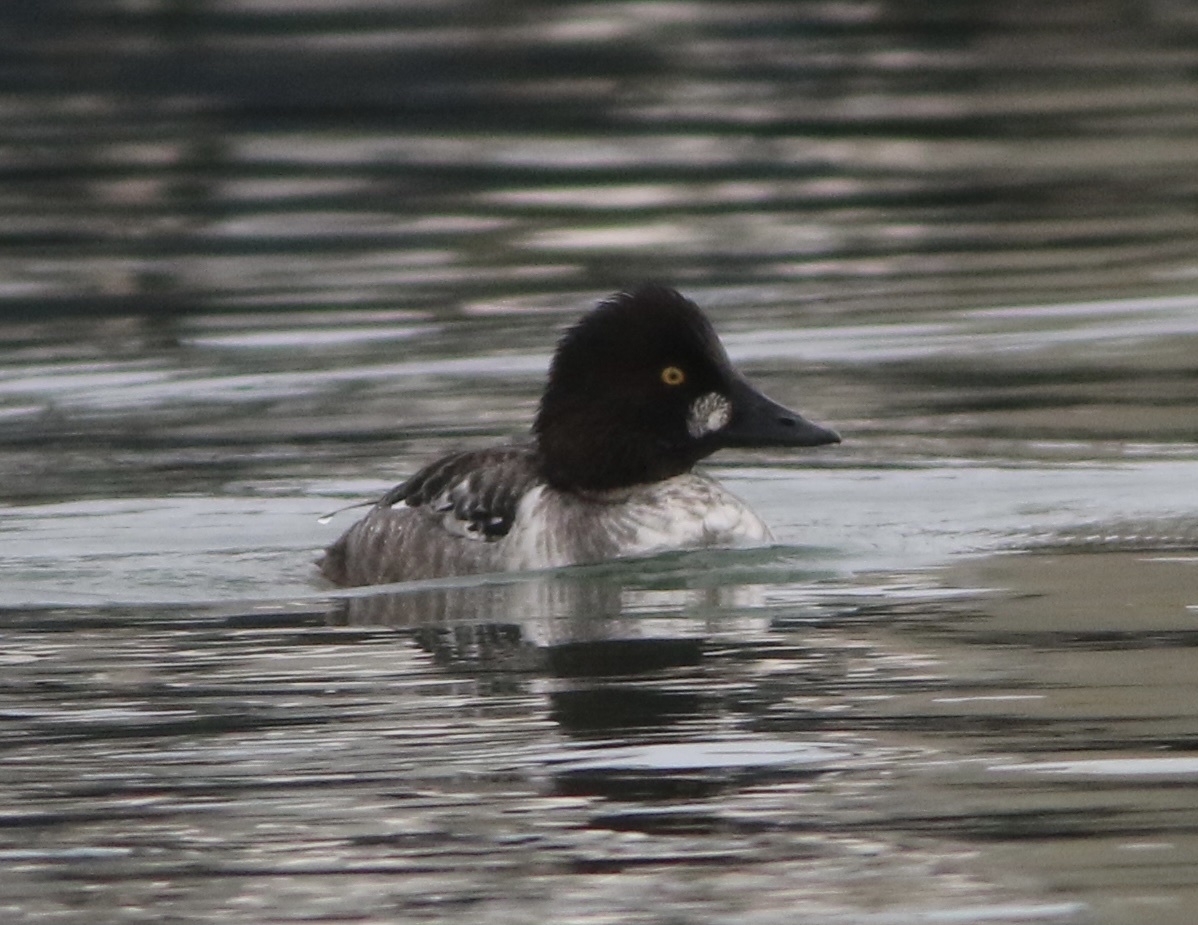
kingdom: Animalia
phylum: Chordata
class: Aves
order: Anseriformes
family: Anatidae
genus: Bucephala
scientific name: Bucephala clangula
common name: Common goldeneye
